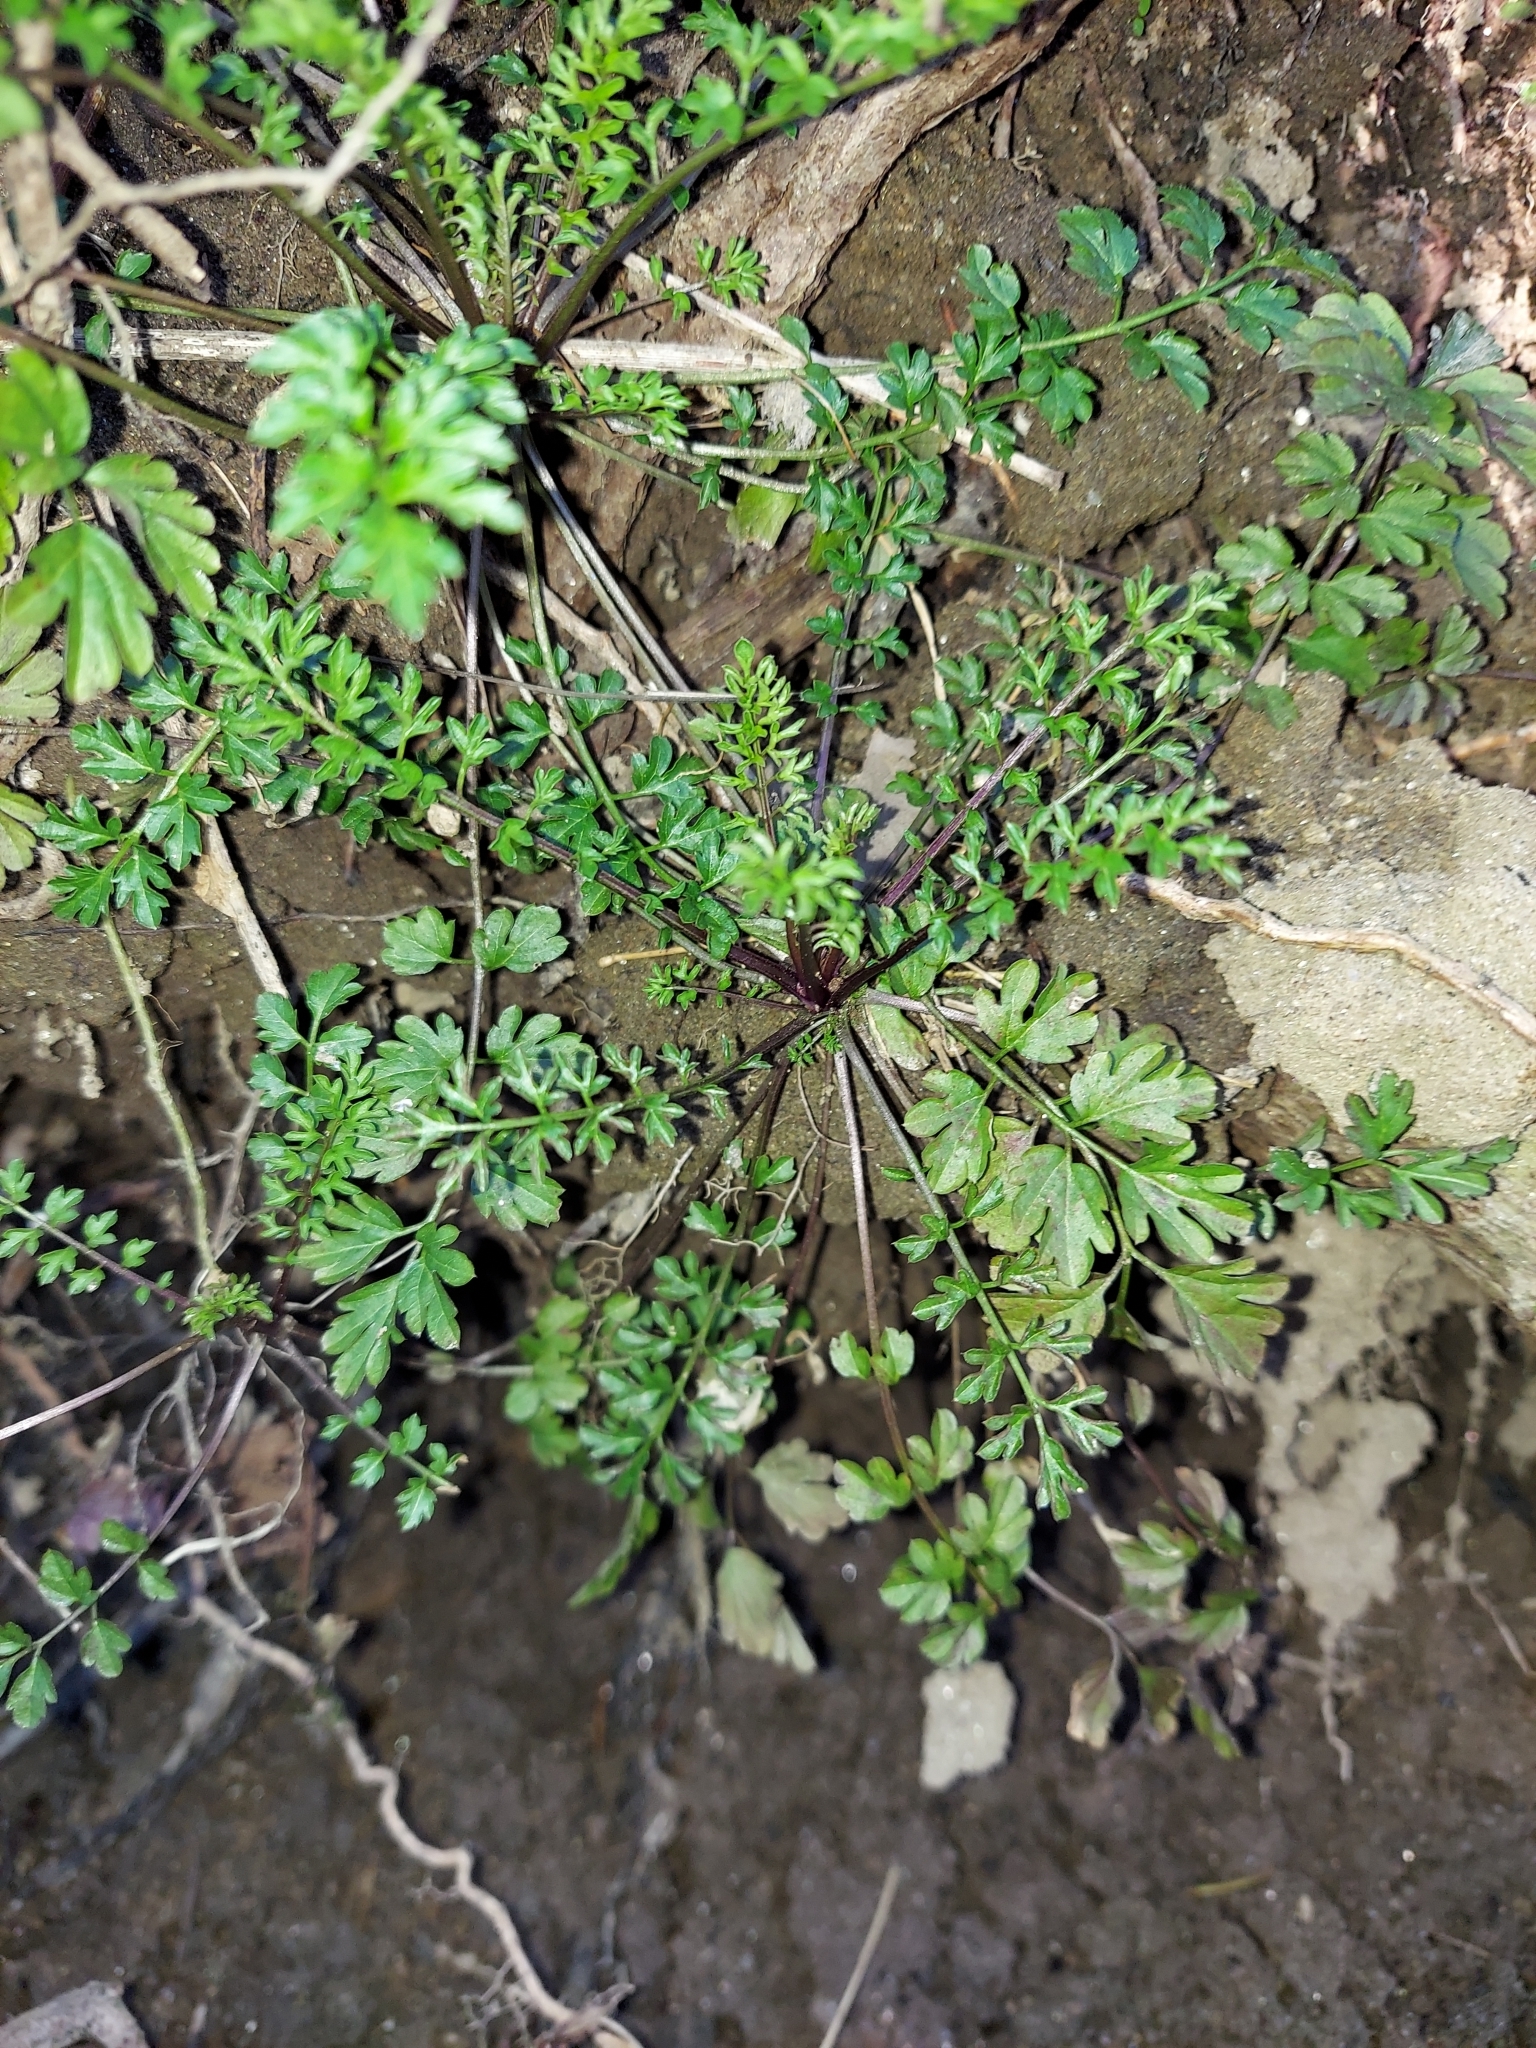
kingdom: Plantae
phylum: Tracheophyta
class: Magnoliopsida
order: Brassicales
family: Brassicaceae
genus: Cardamine
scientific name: Cardamine impatiens
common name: Narrow-leaved bitter-cress
